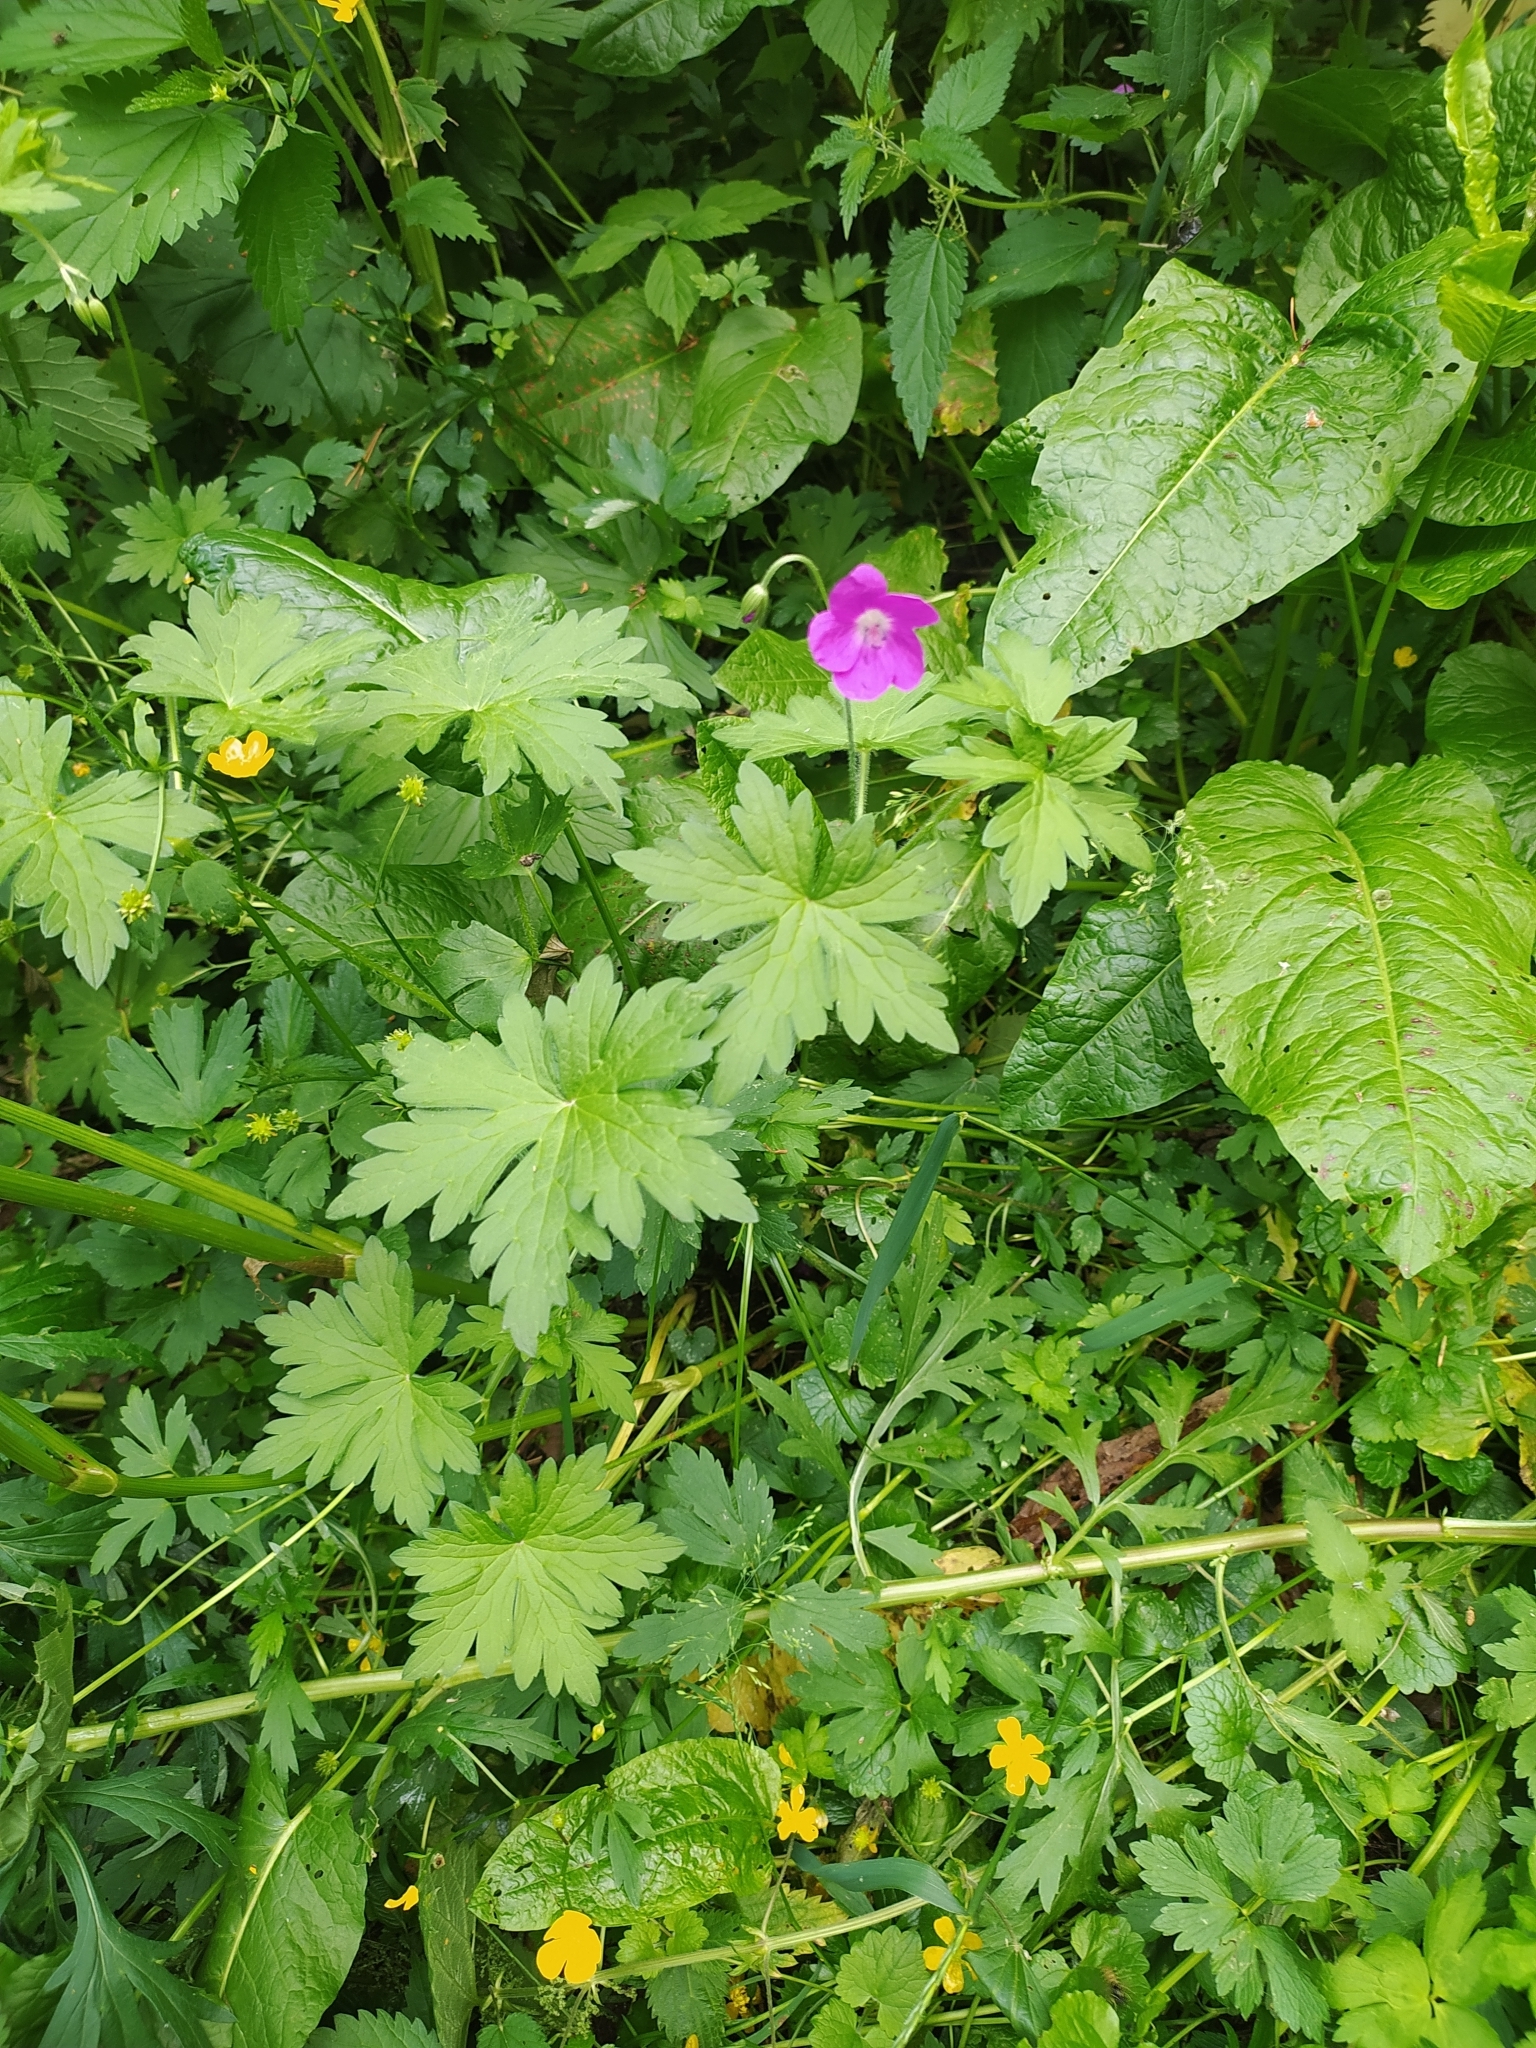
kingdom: Plantae
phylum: Tracheophyta
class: Magnoliopsida
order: Geraniales
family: Geraniaceae
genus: Geranium
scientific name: Geranium palustre
